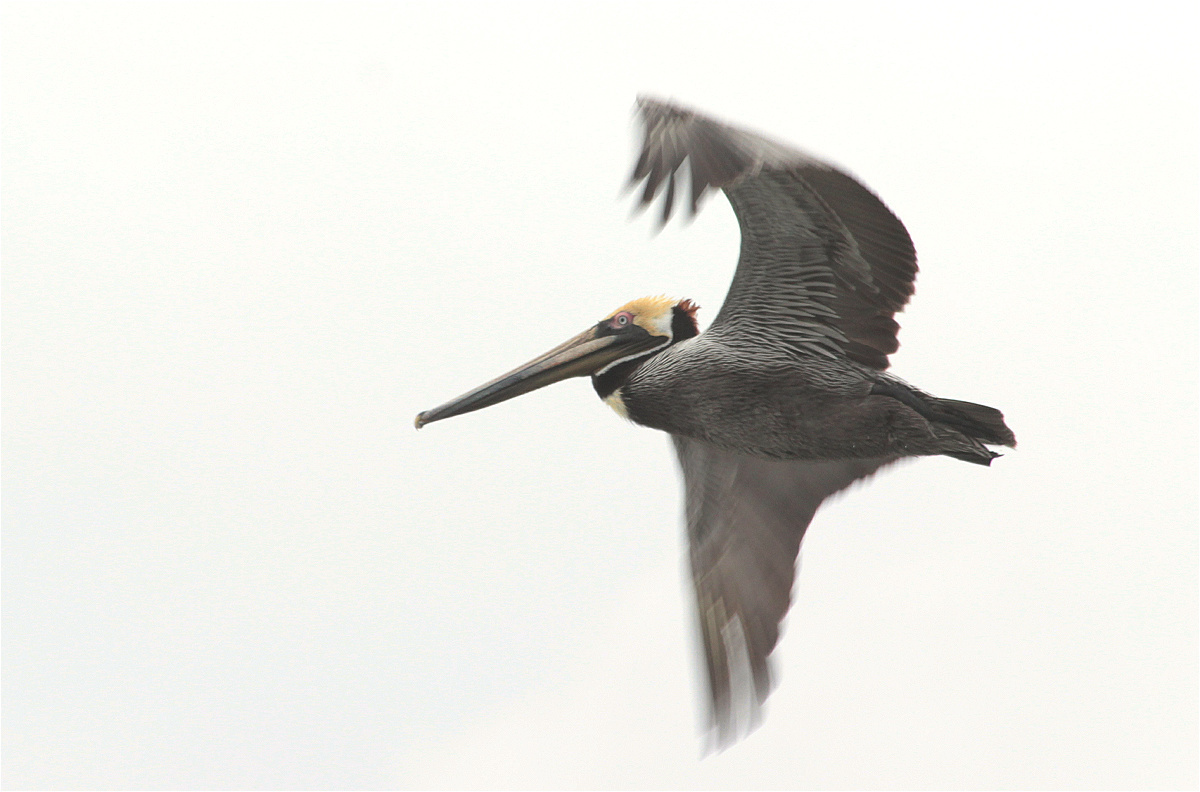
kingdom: Animalia
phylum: Chordata
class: Aves
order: Pelecaniformes
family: Pelecanidae
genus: Pelecanus
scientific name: Pelecanus occidentalis
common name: Brown pelican
